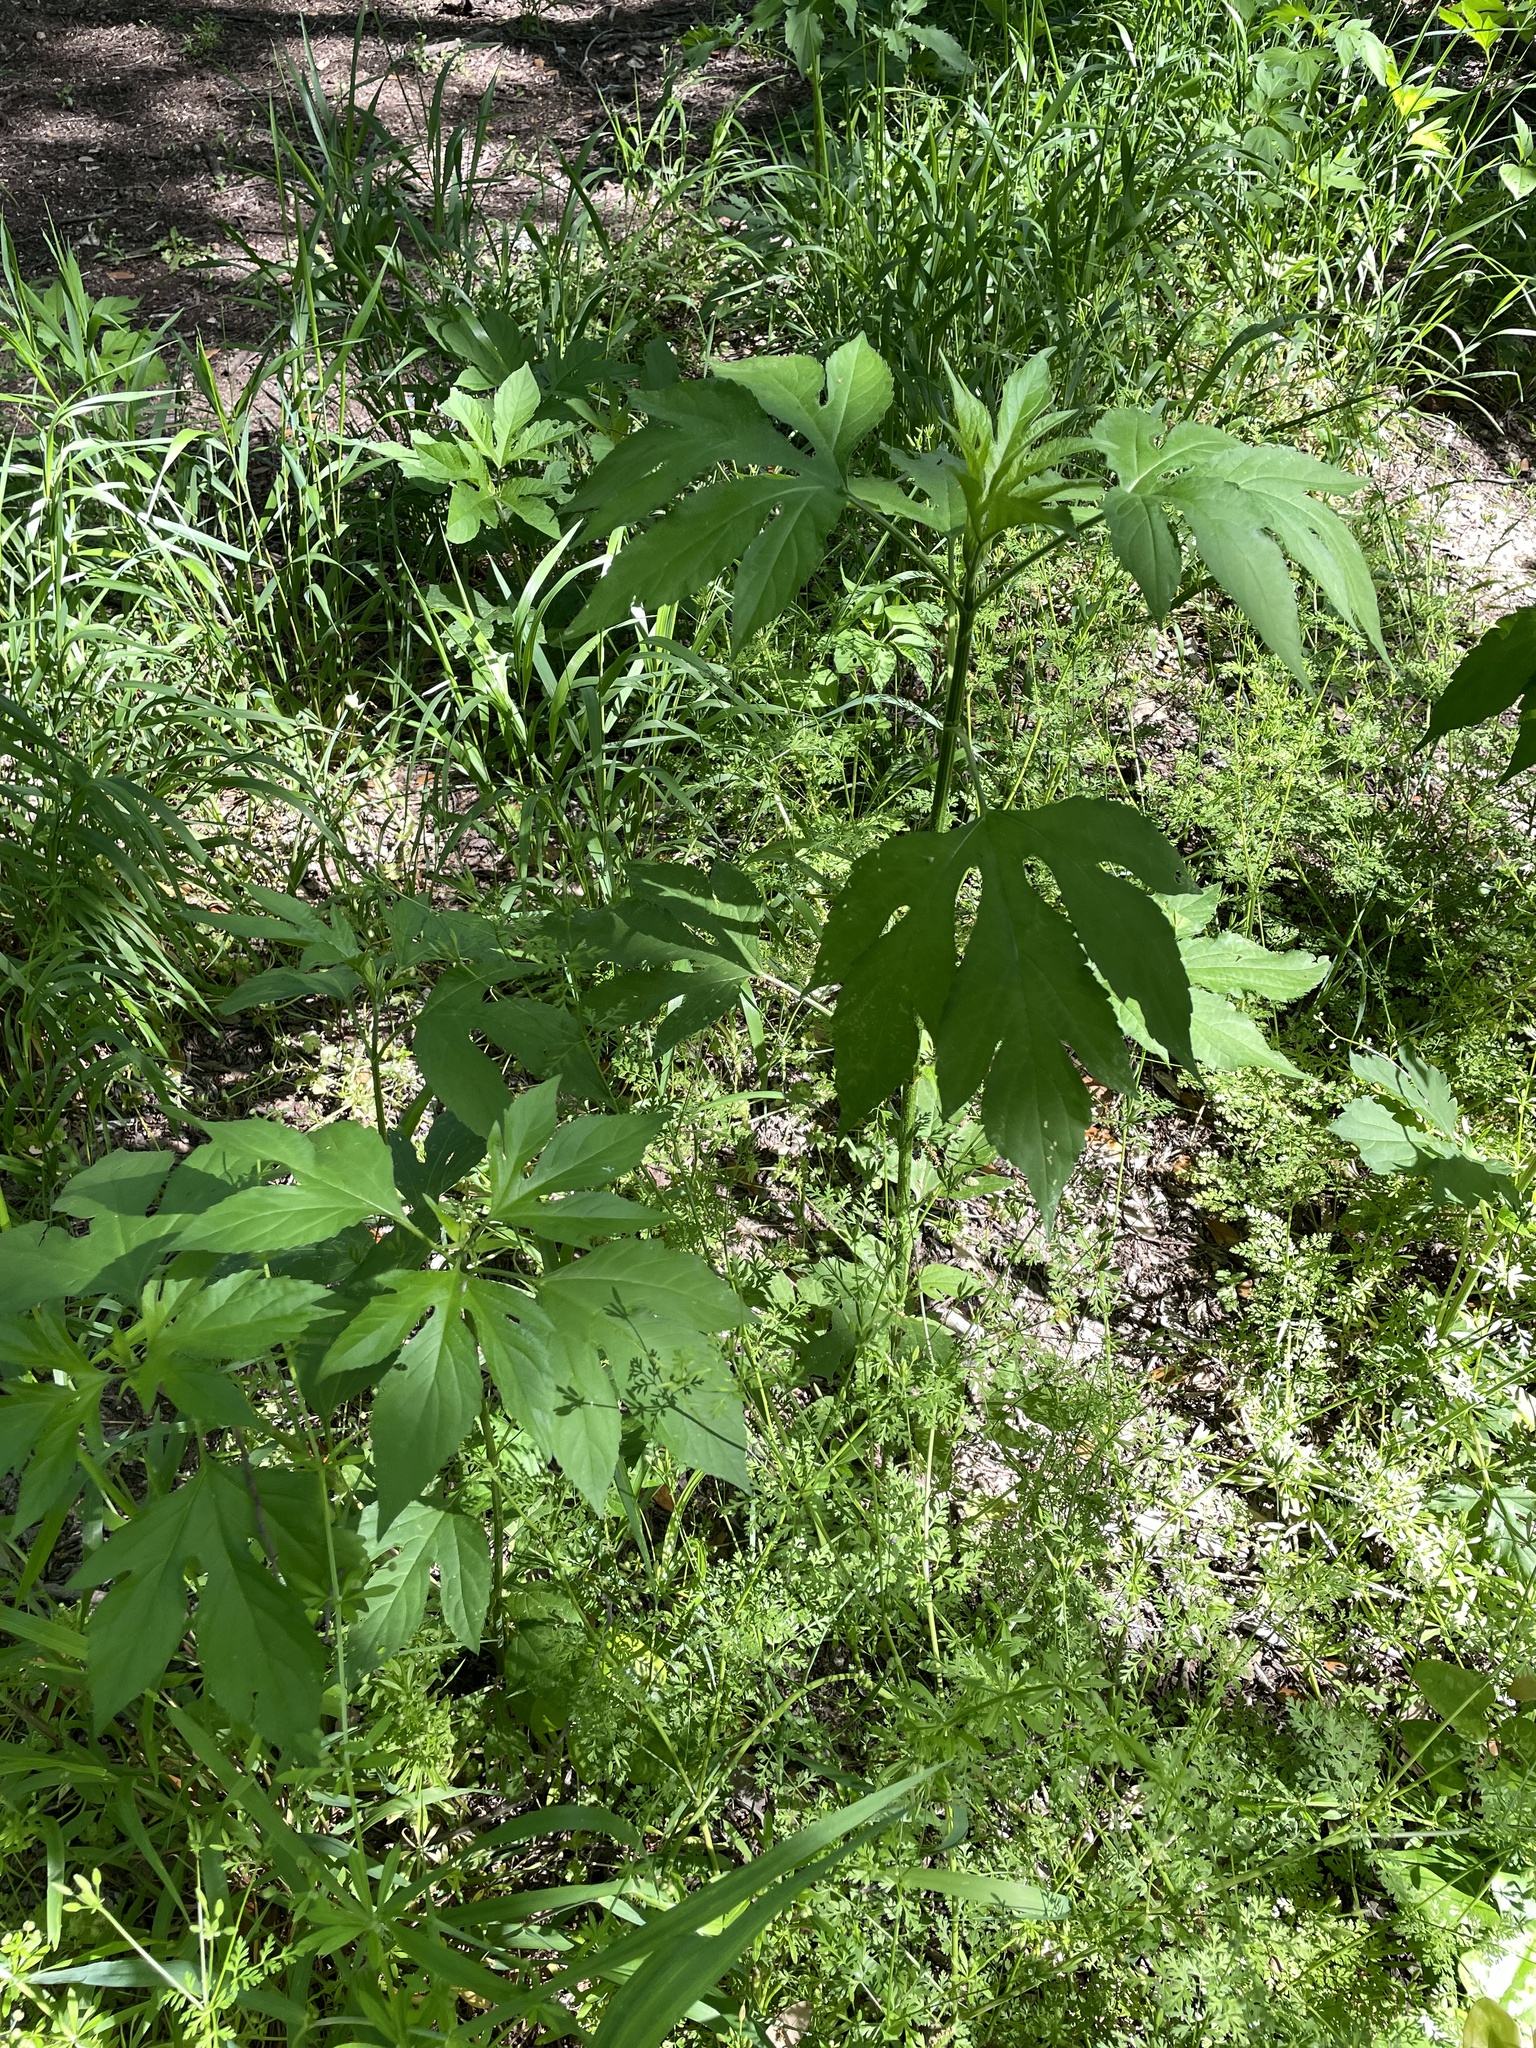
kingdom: Plantae
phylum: Tracheophyta
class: Magnoliopsida
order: Asterales
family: Asteraceae
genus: Ambrosia
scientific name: Ambrosia trifida
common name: Giant ragweed
